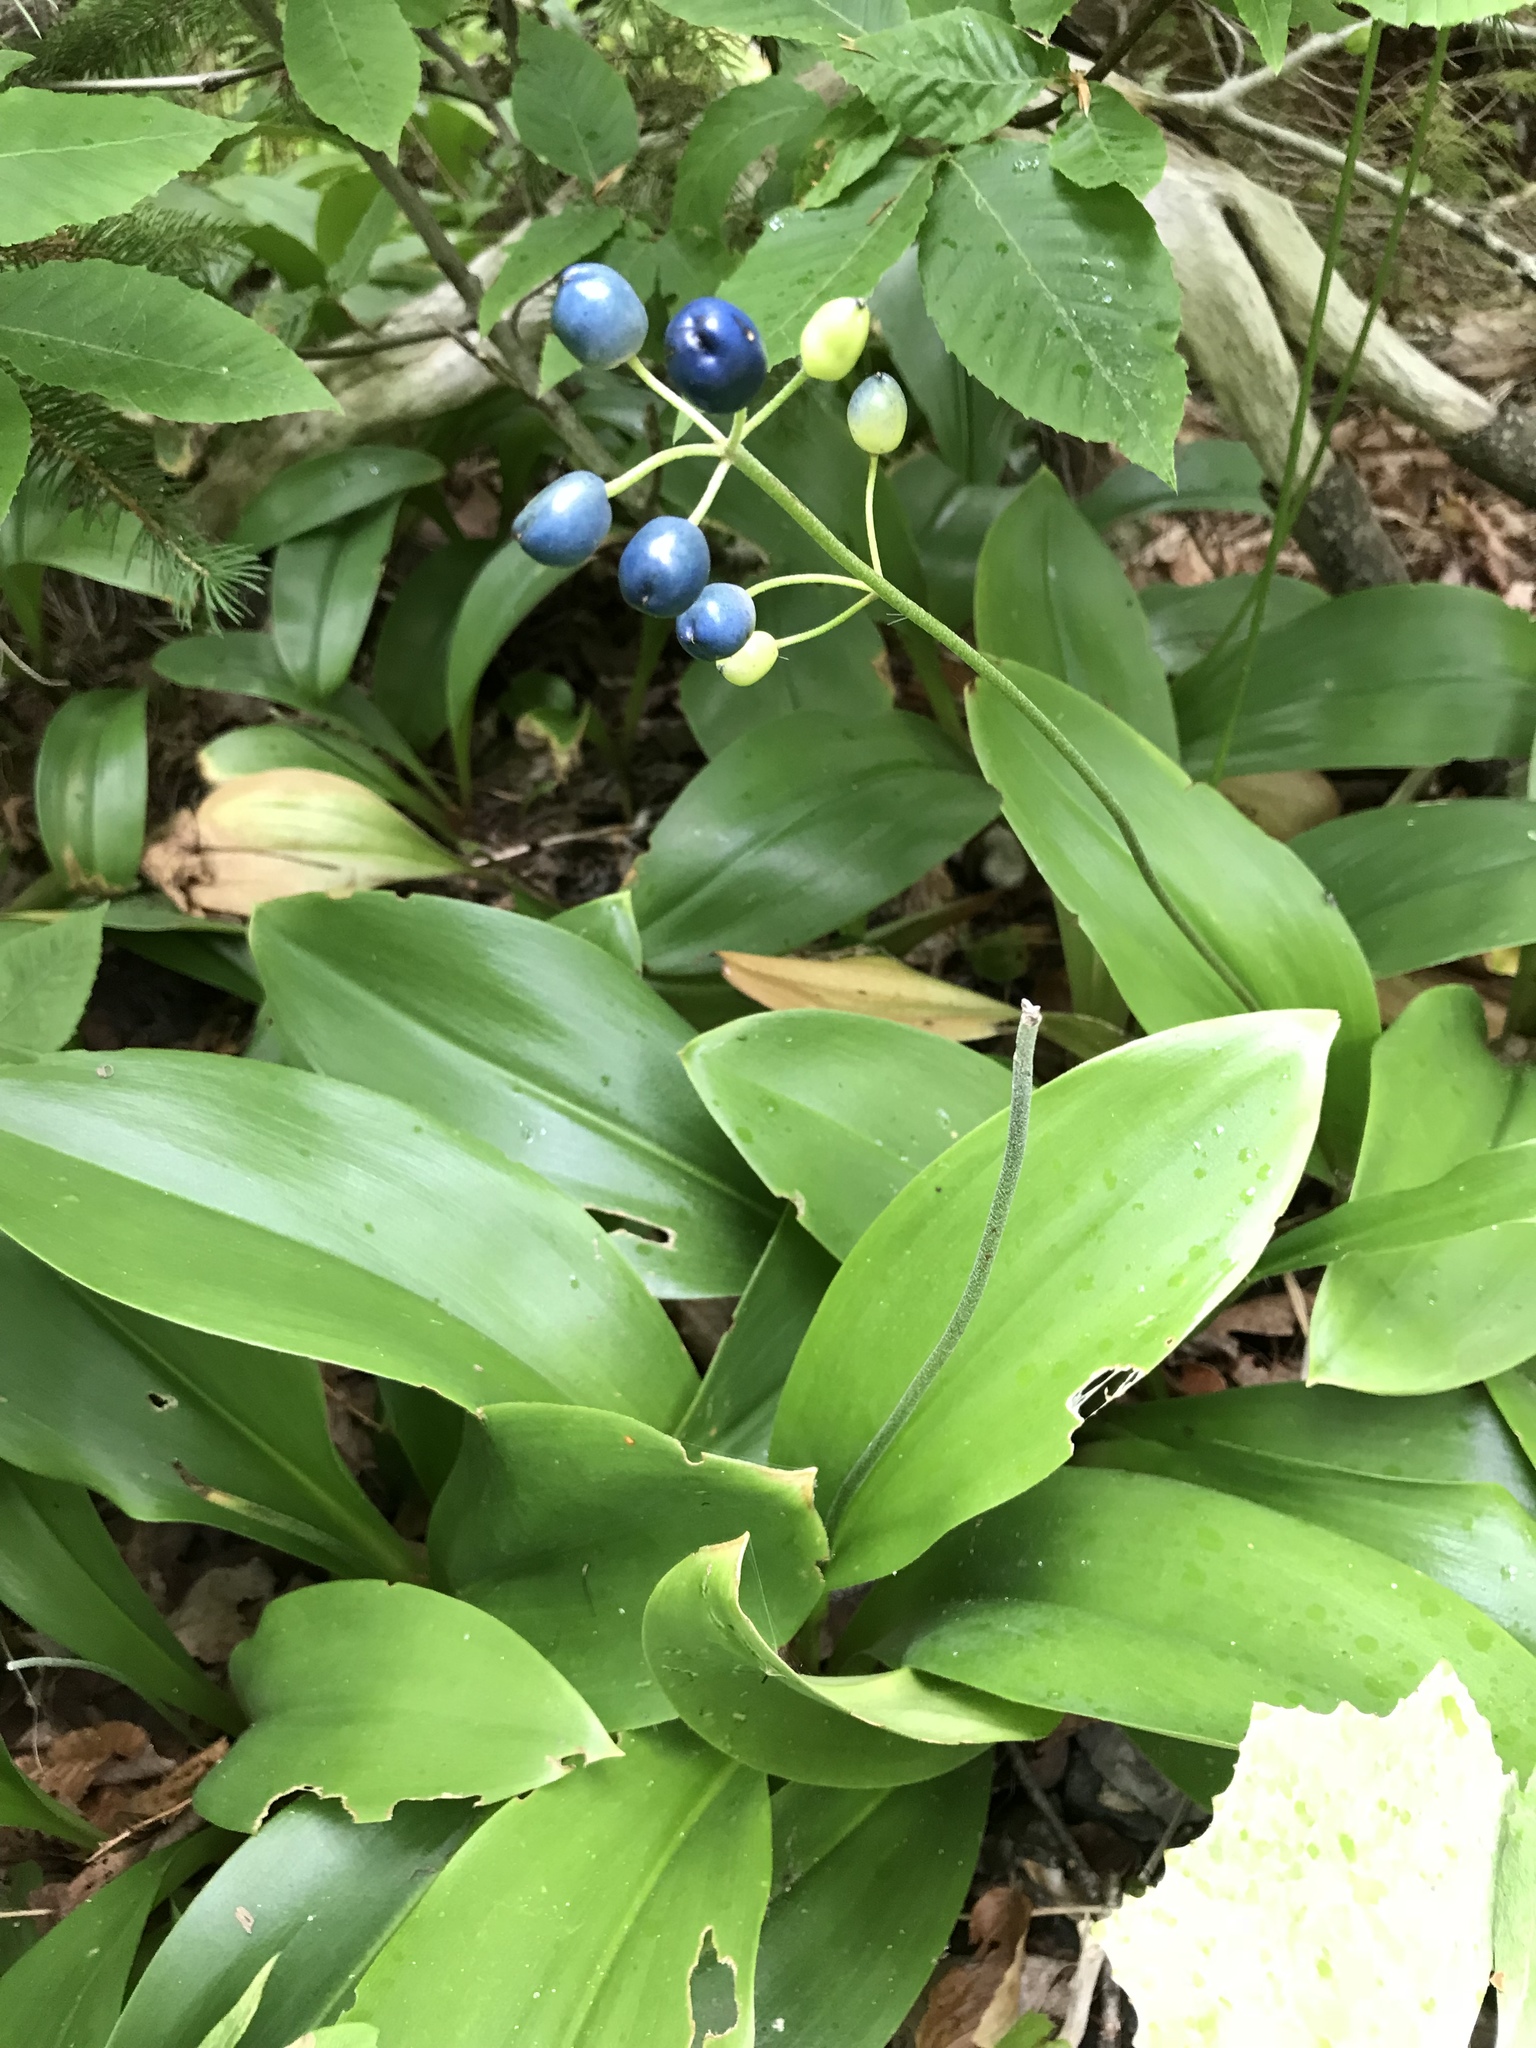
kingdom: Plantae
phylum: Tracheophyta
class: Liliopsida
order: Liliales
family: Liliaceae
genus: Clintonia
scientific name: Clintonia borealis
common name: Yellow clintonia
